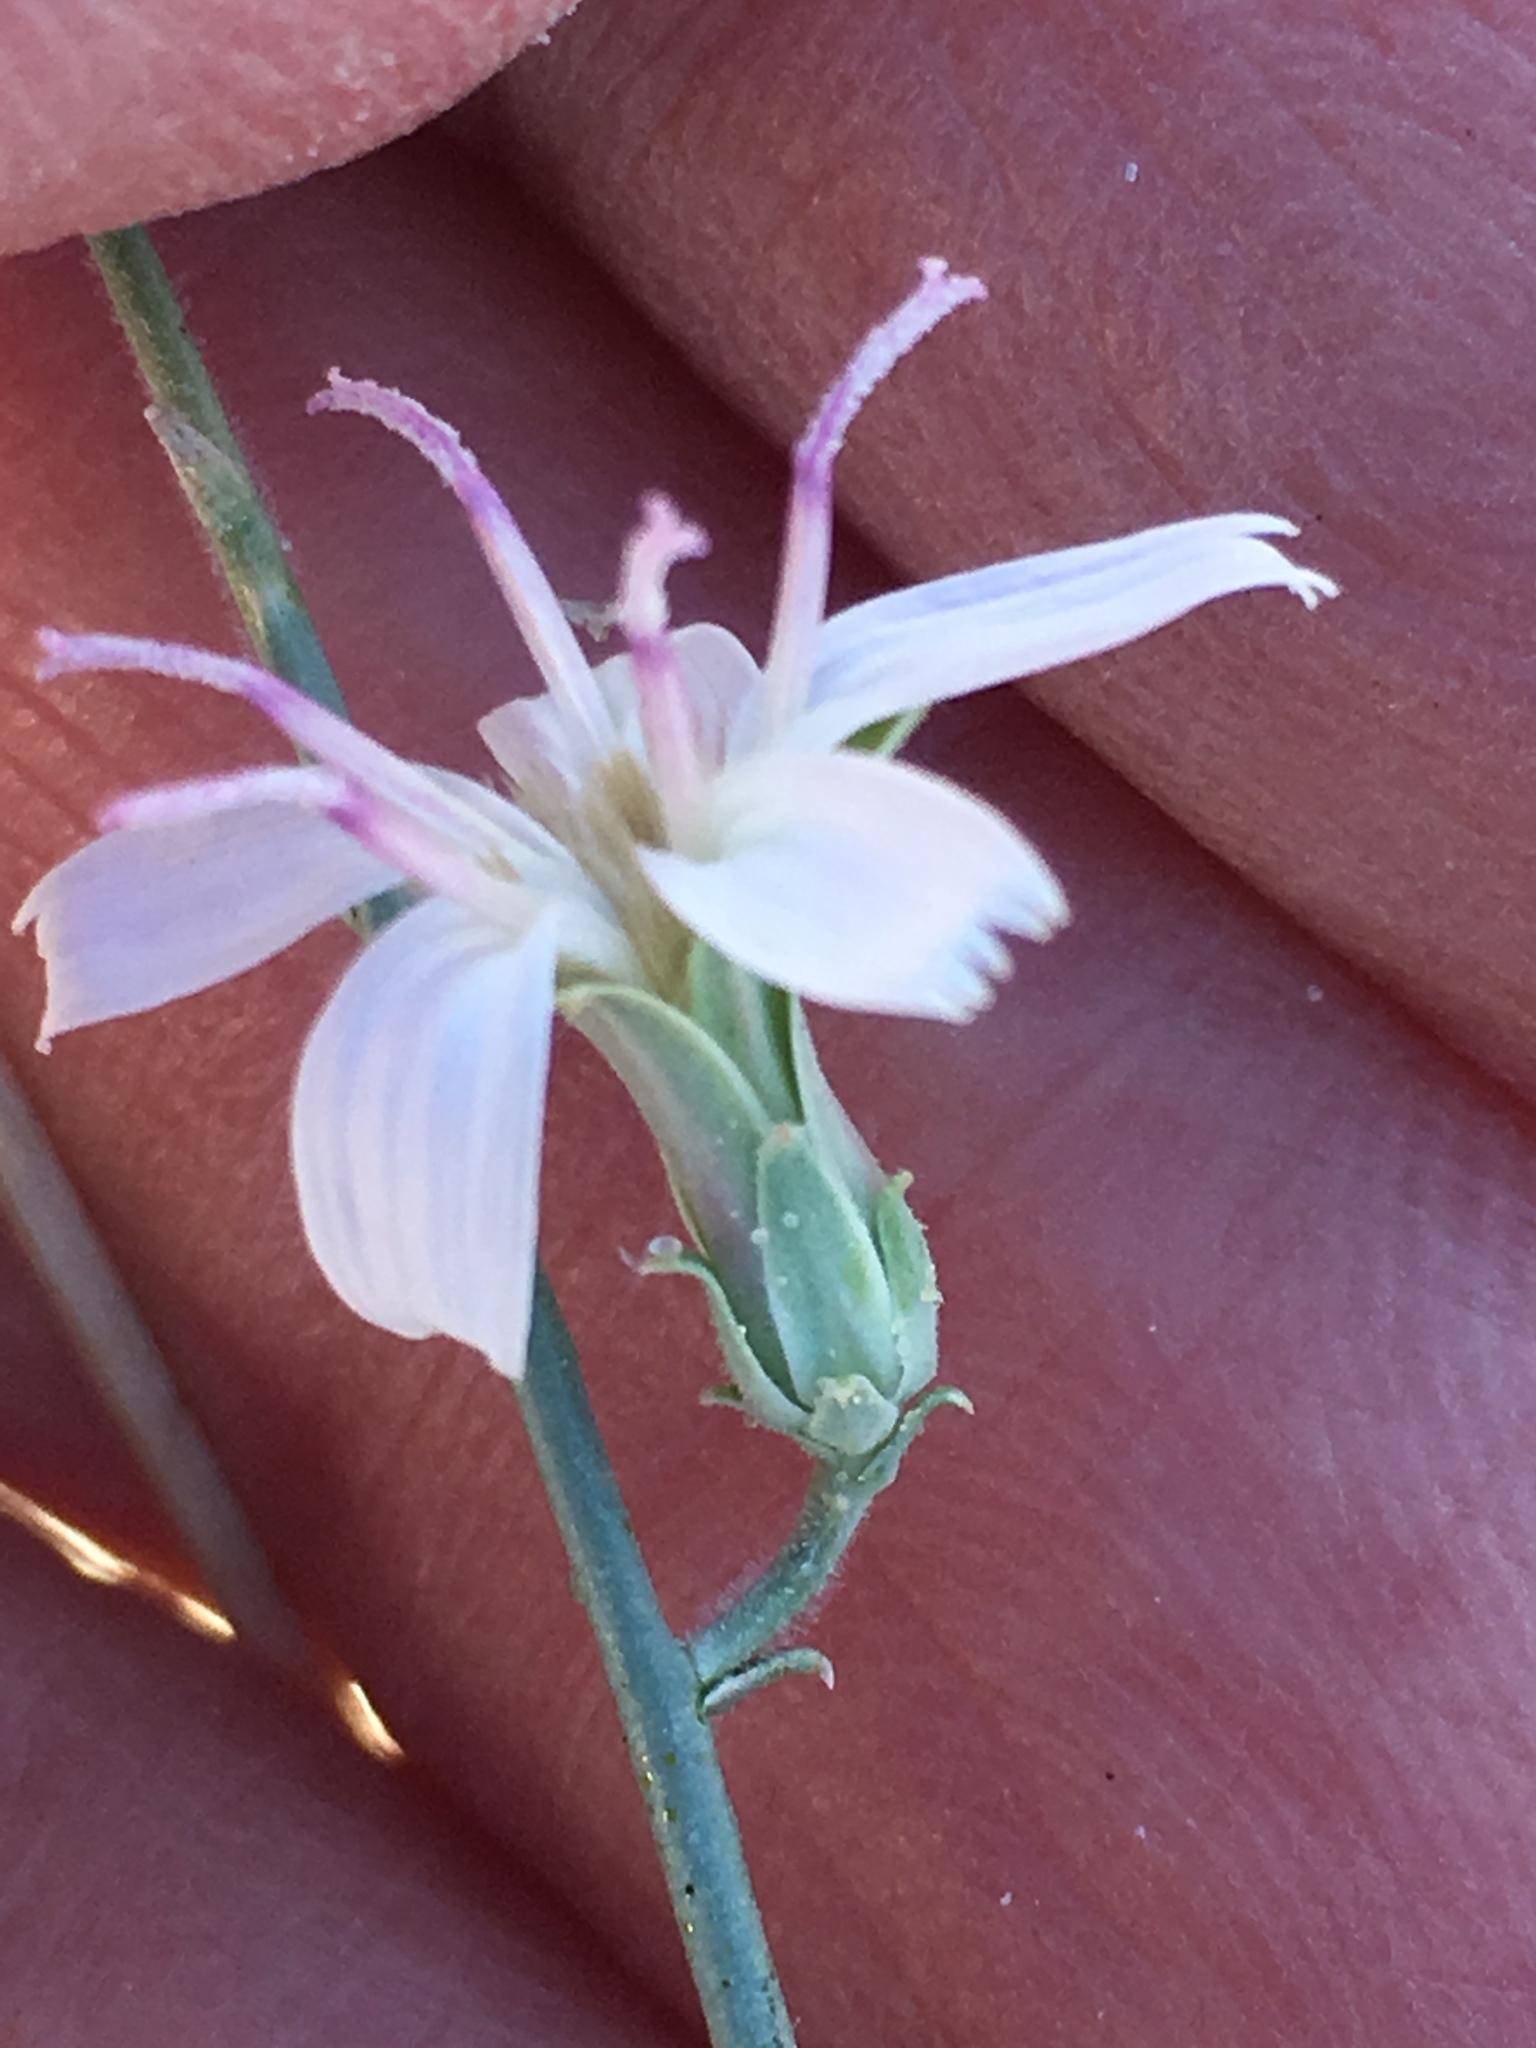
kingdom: Plantae
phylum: Tracheophyta
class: Magnoliopsida
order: Asterales
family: Asteraceae
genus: Stephanomeria
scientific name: Stephanomeria pauciflora
